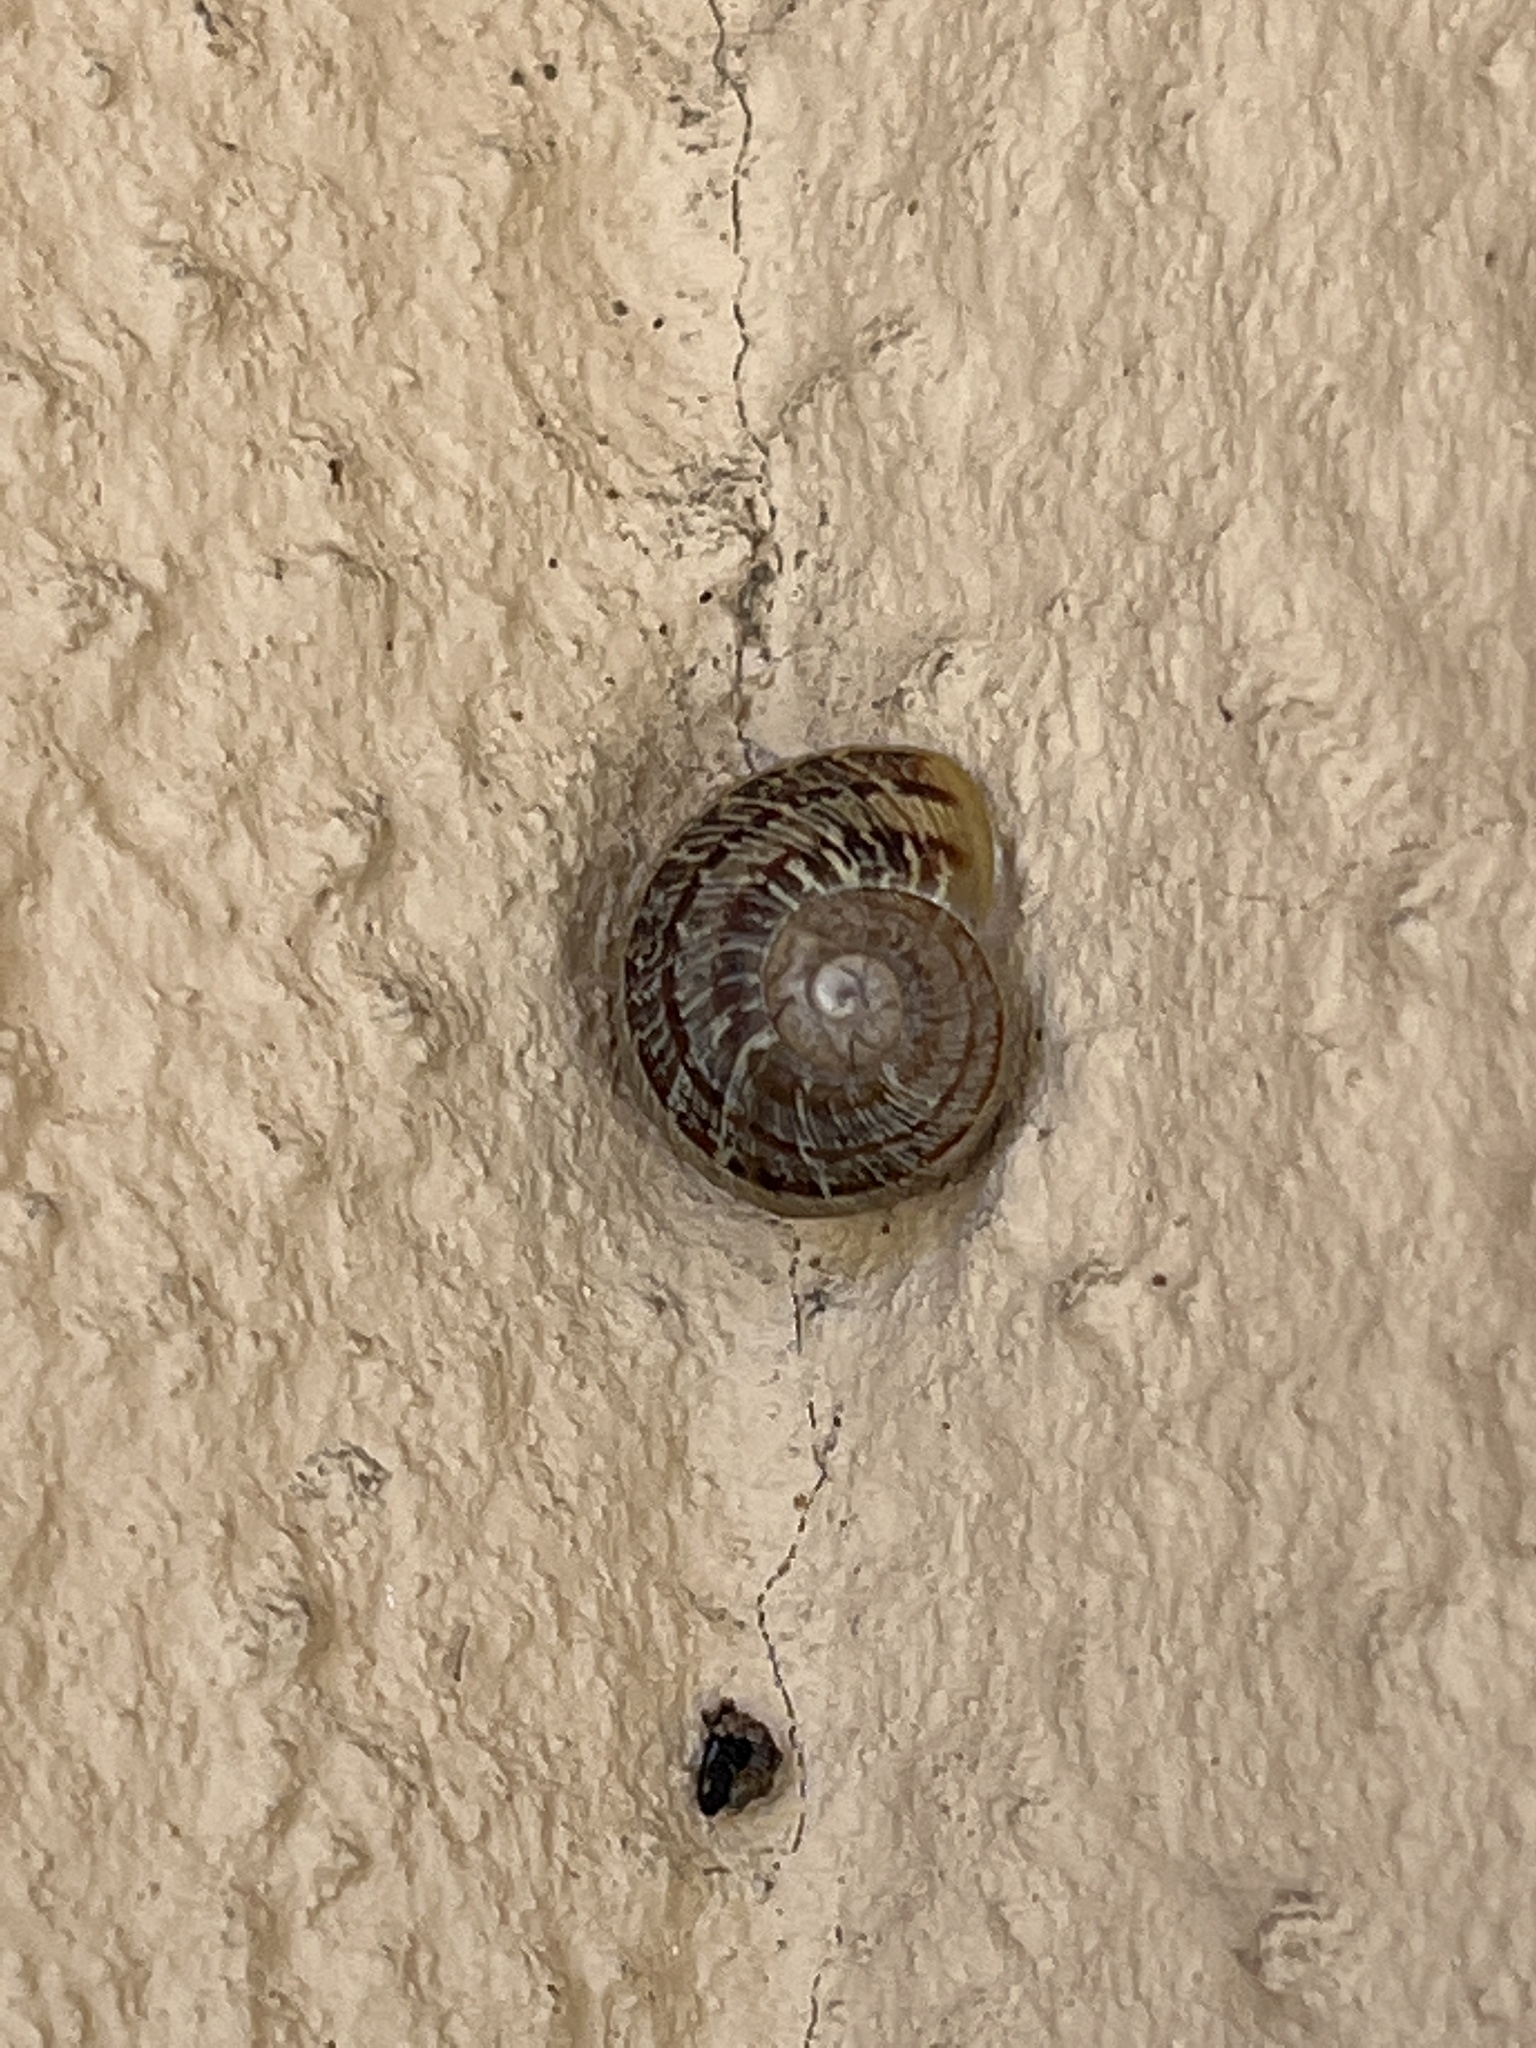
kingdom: Animalia
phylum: Mollusca
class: Gastropoda
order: Stylommatophora
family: Helicidae
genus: Cornu
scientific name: Cornu aspersum
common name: Brown garden snail
